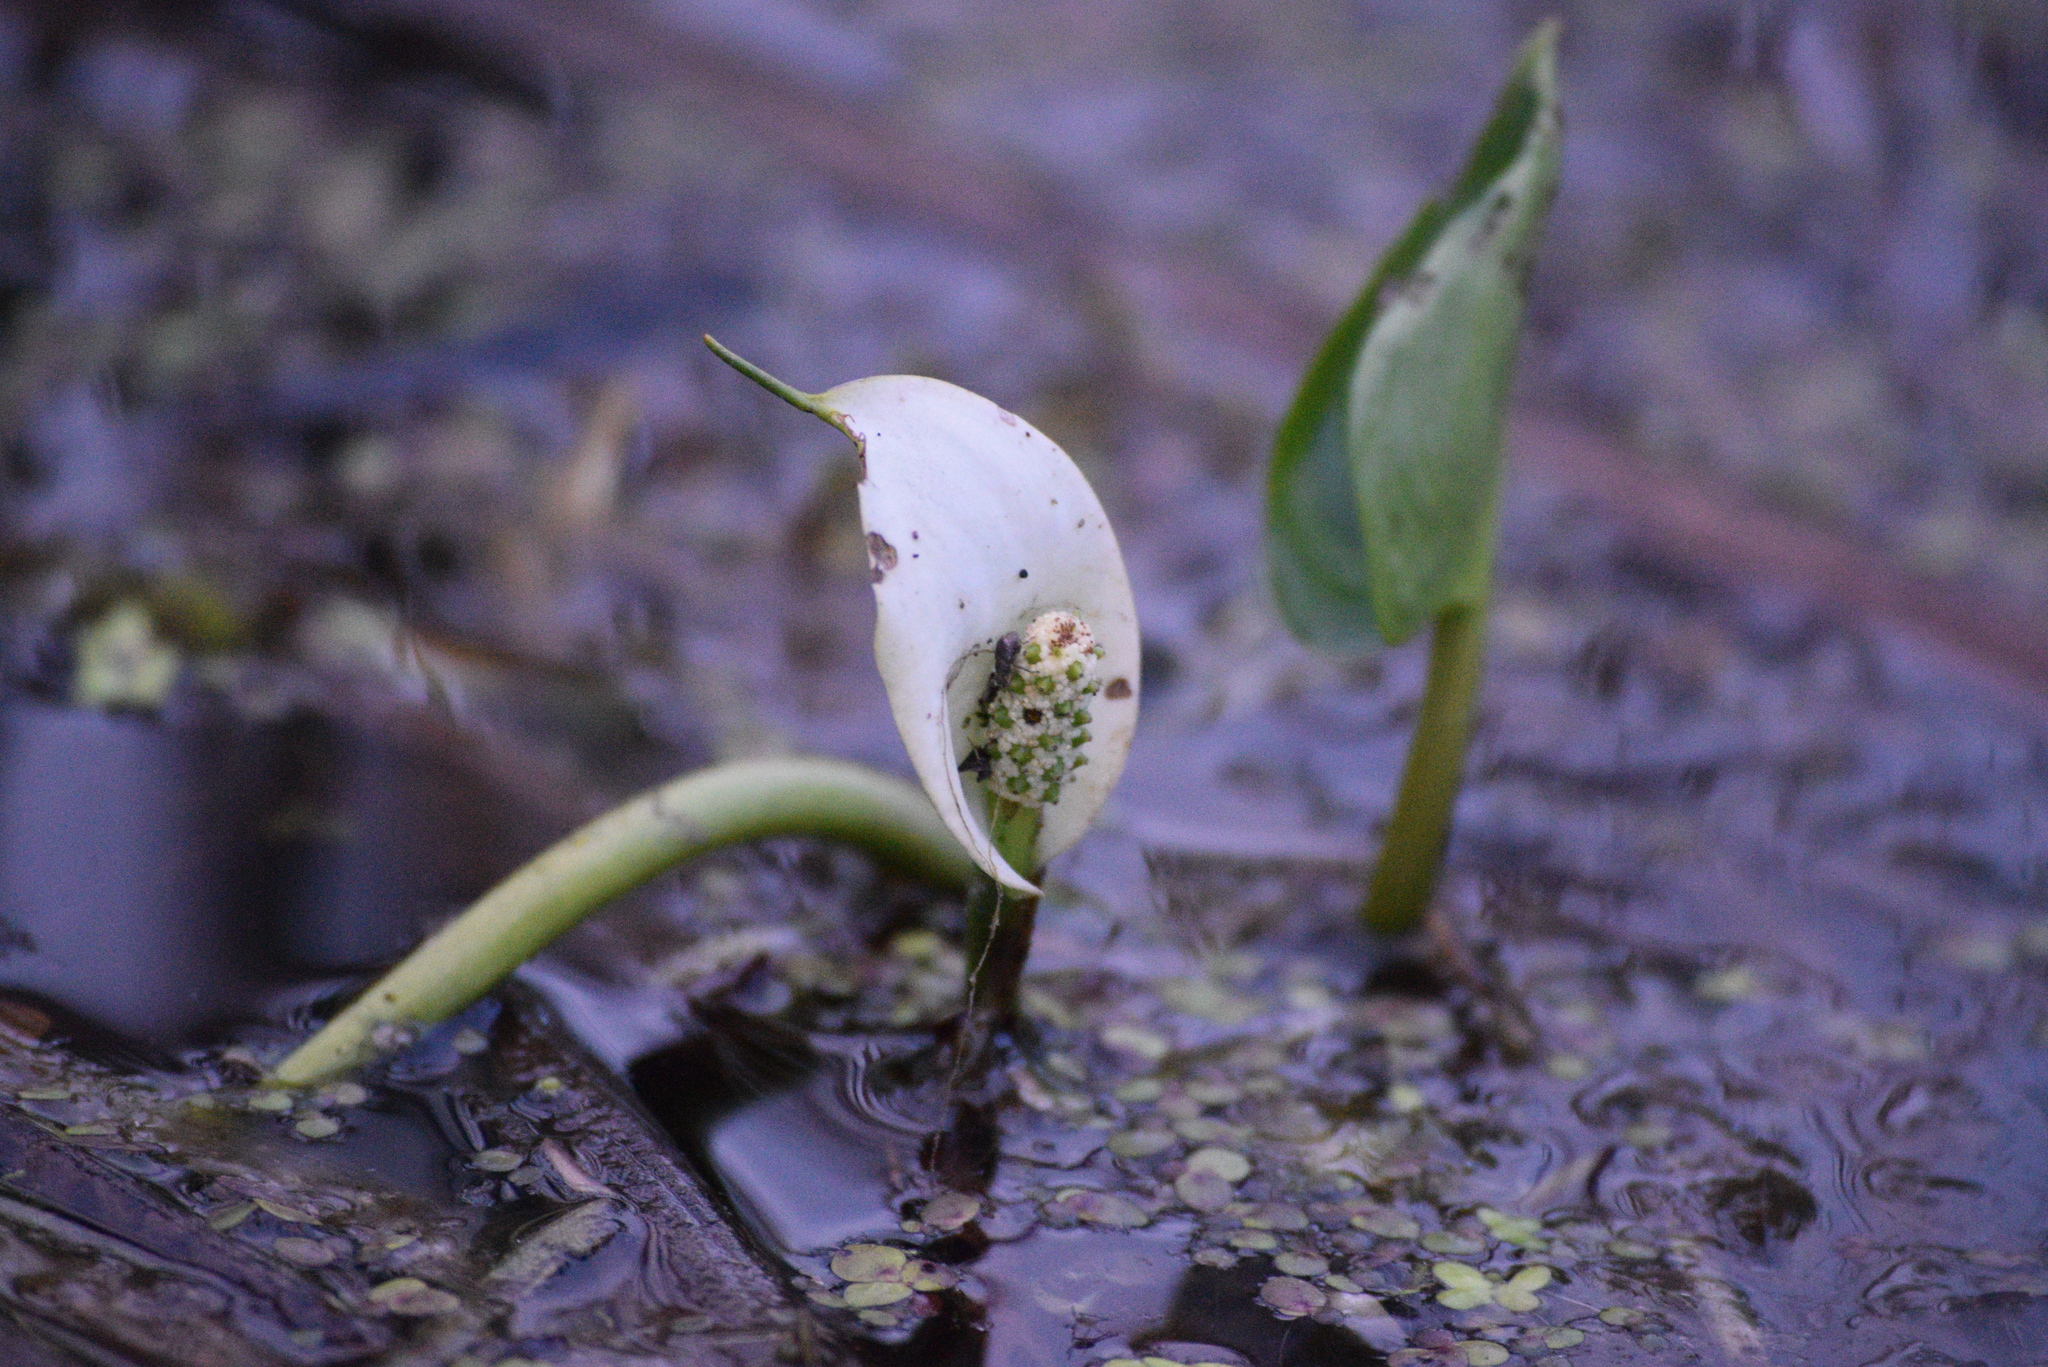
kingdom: Plantae
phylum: Tracheophyta
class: Liliopsida
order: Alismatales
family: Araceae
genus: Calla
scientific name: Calla palustris
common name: Bog arum
